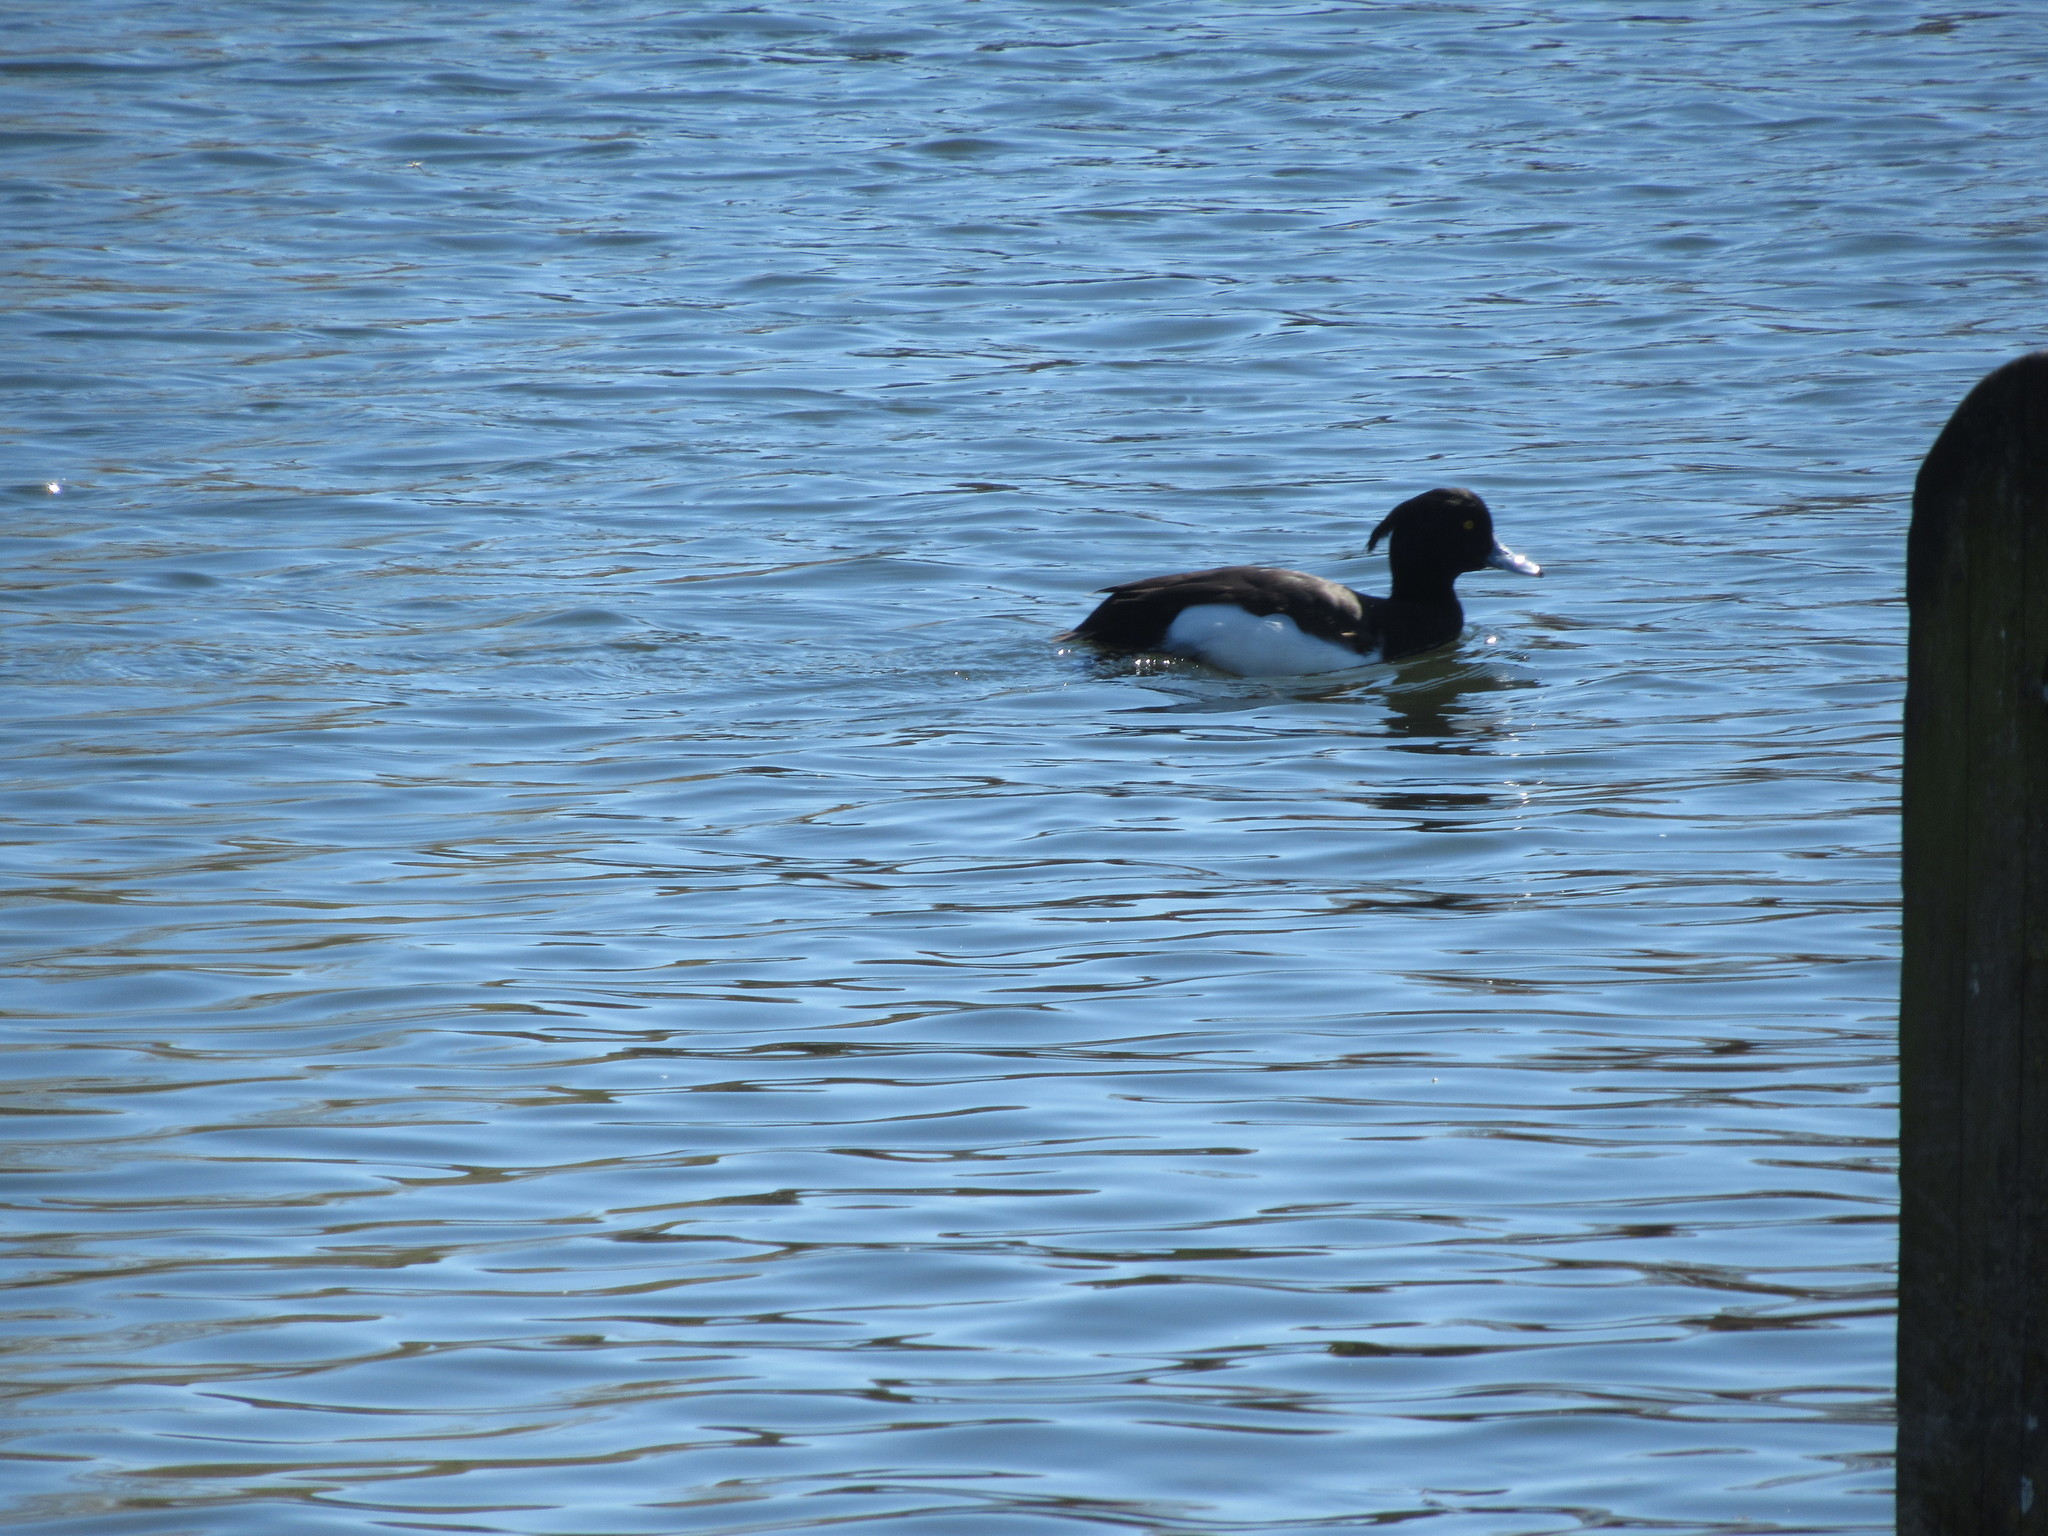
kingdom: Animalia
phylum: Chordata
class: Aves
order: Anseriformes
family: Anatidae
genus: Aythya
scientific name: Aythya fuligula
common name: Tufted duck
